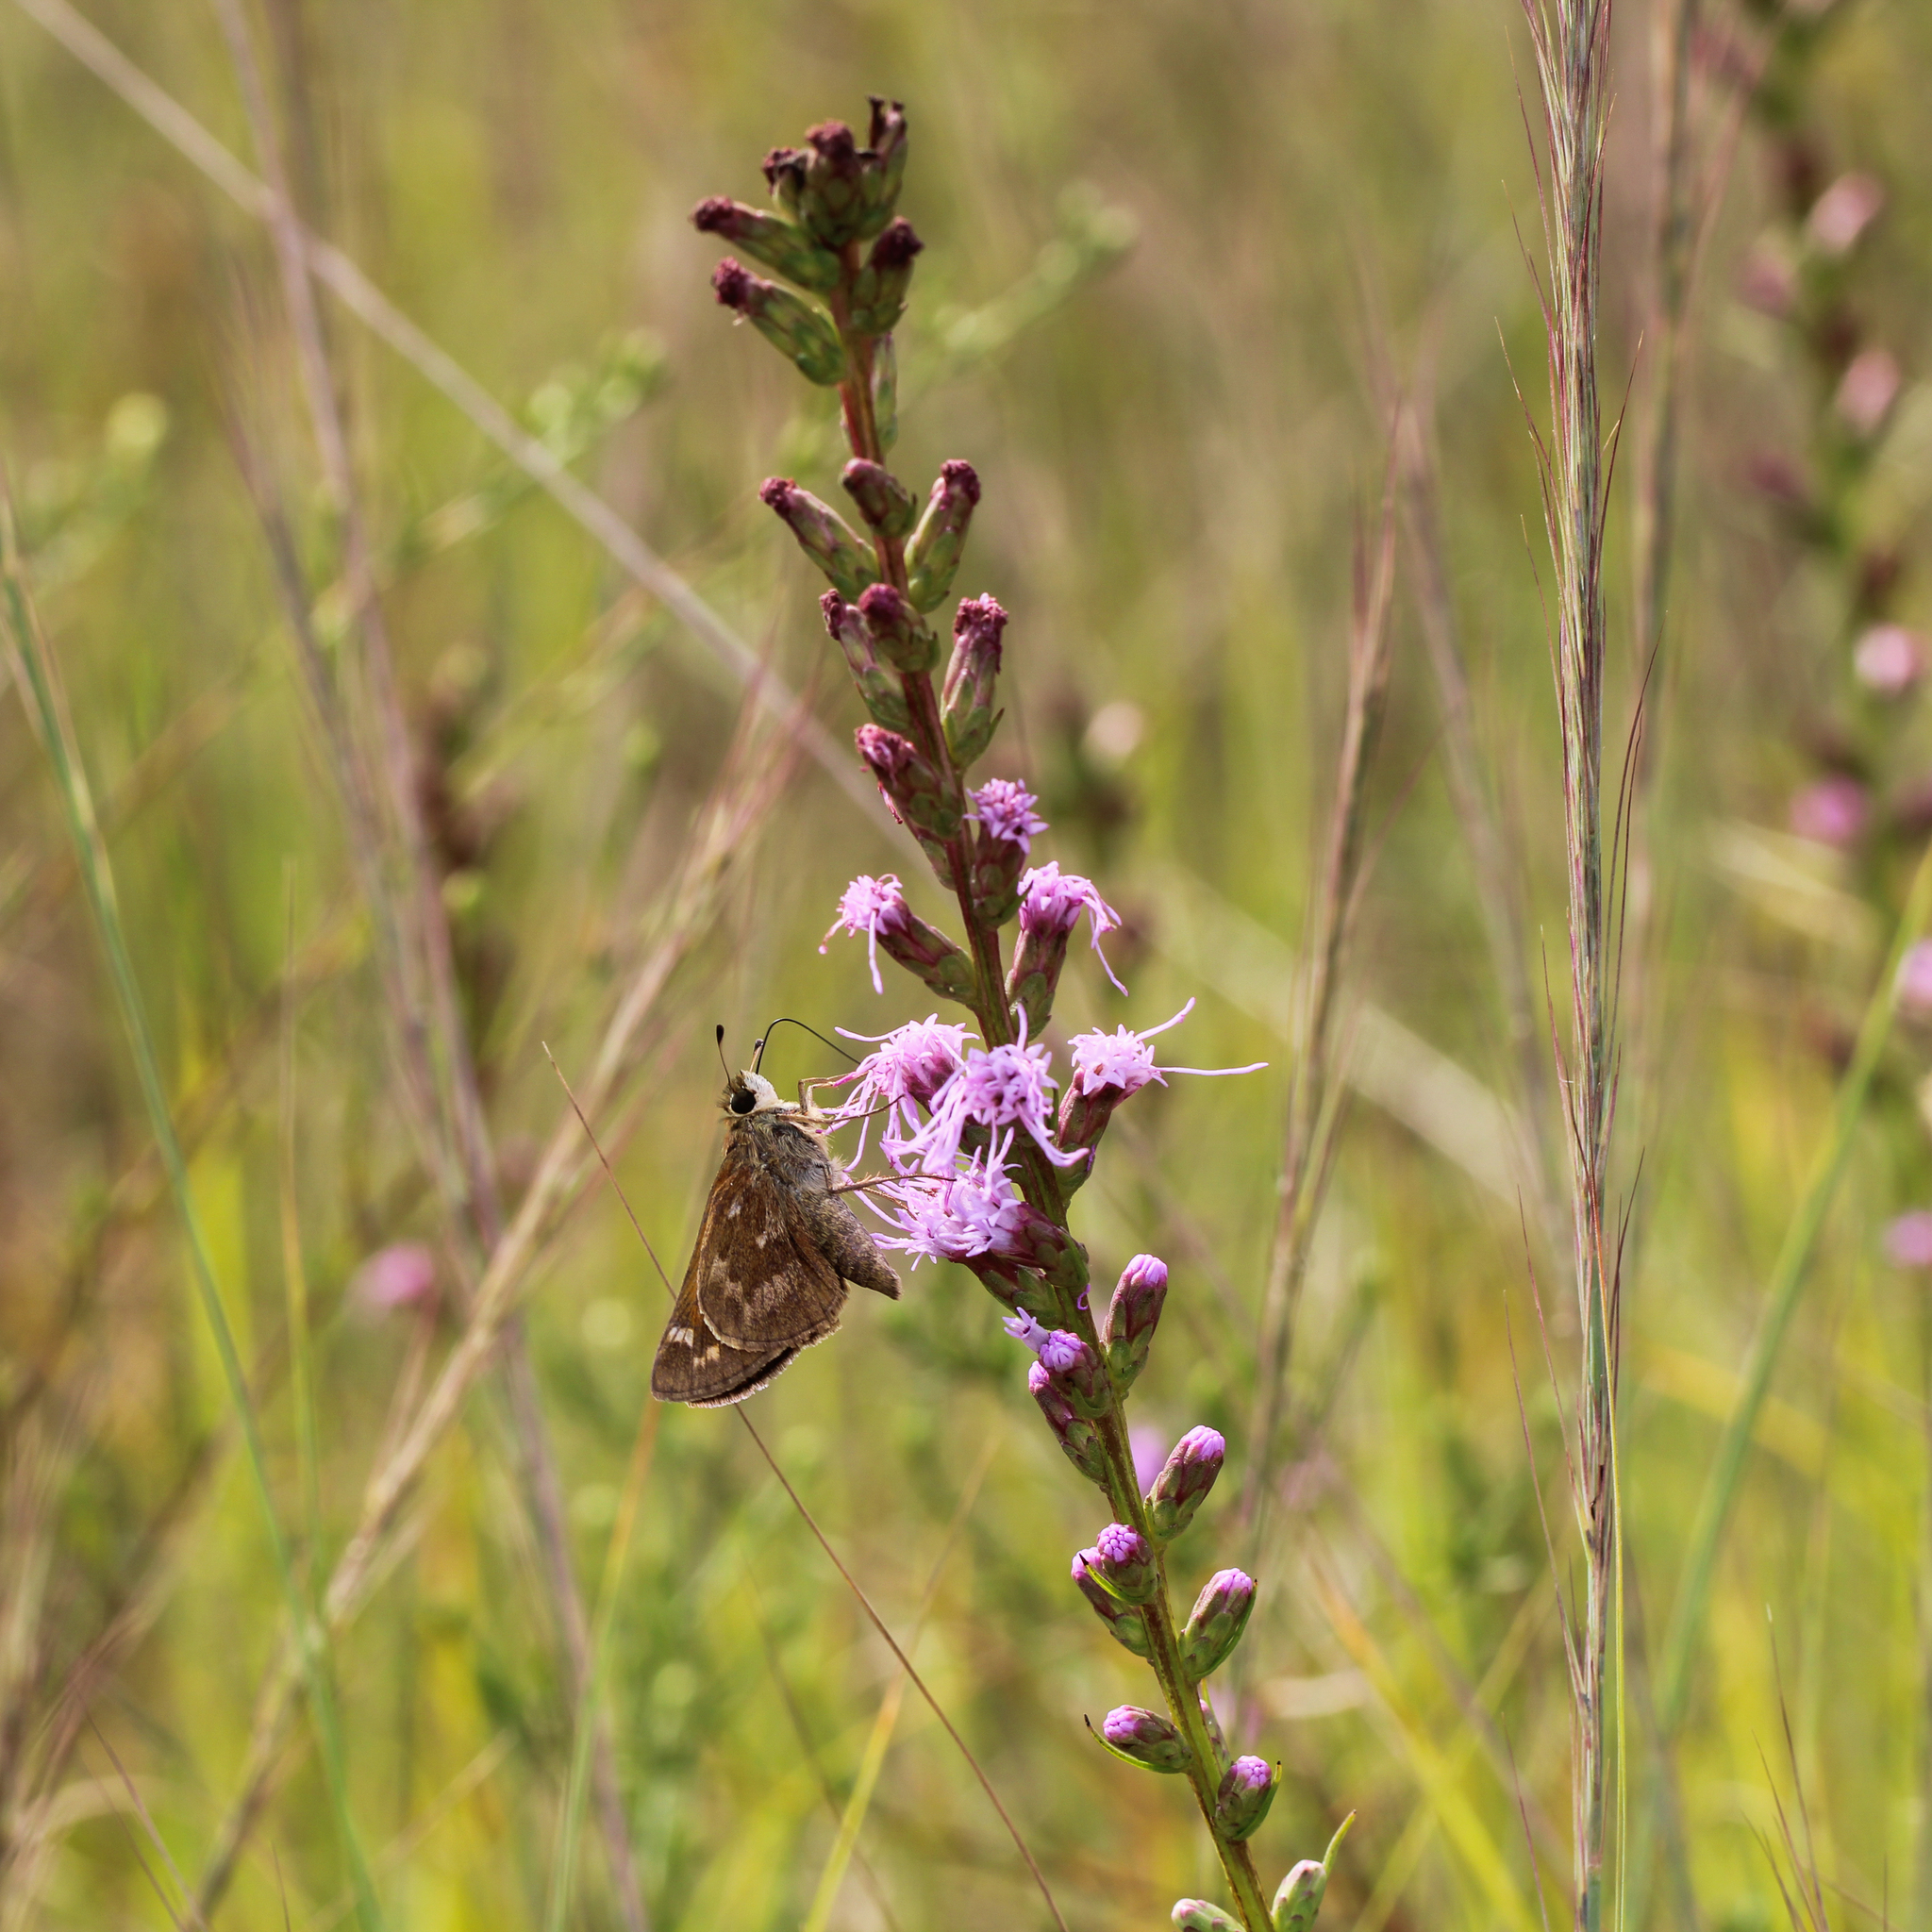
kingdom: Animalia
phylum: Arthropoda
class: Insecta
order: Lepidoptera
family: Hesperiidae
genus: Atalopedes
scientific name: Atalopedes
